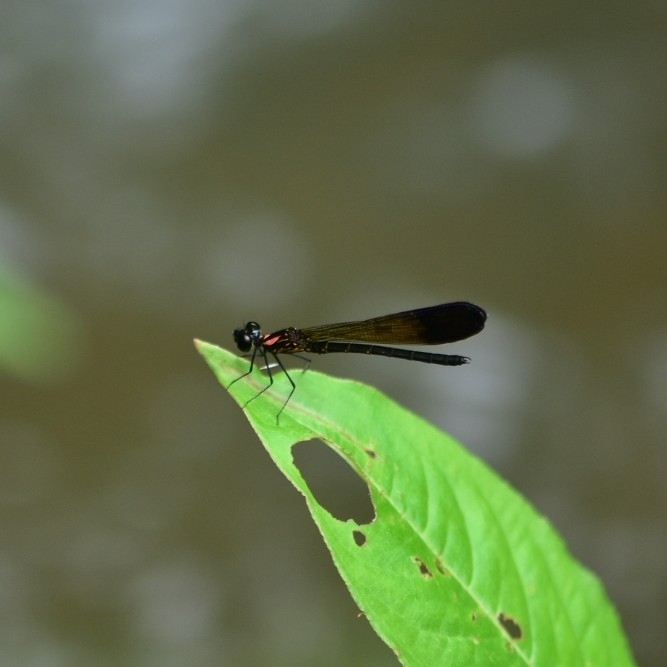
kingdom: Animalia
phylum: Arthropoda
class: Insecta
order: Odonata
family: Chlorocyphidae
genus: Heliocypha
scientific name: Heliocypha bisignata
